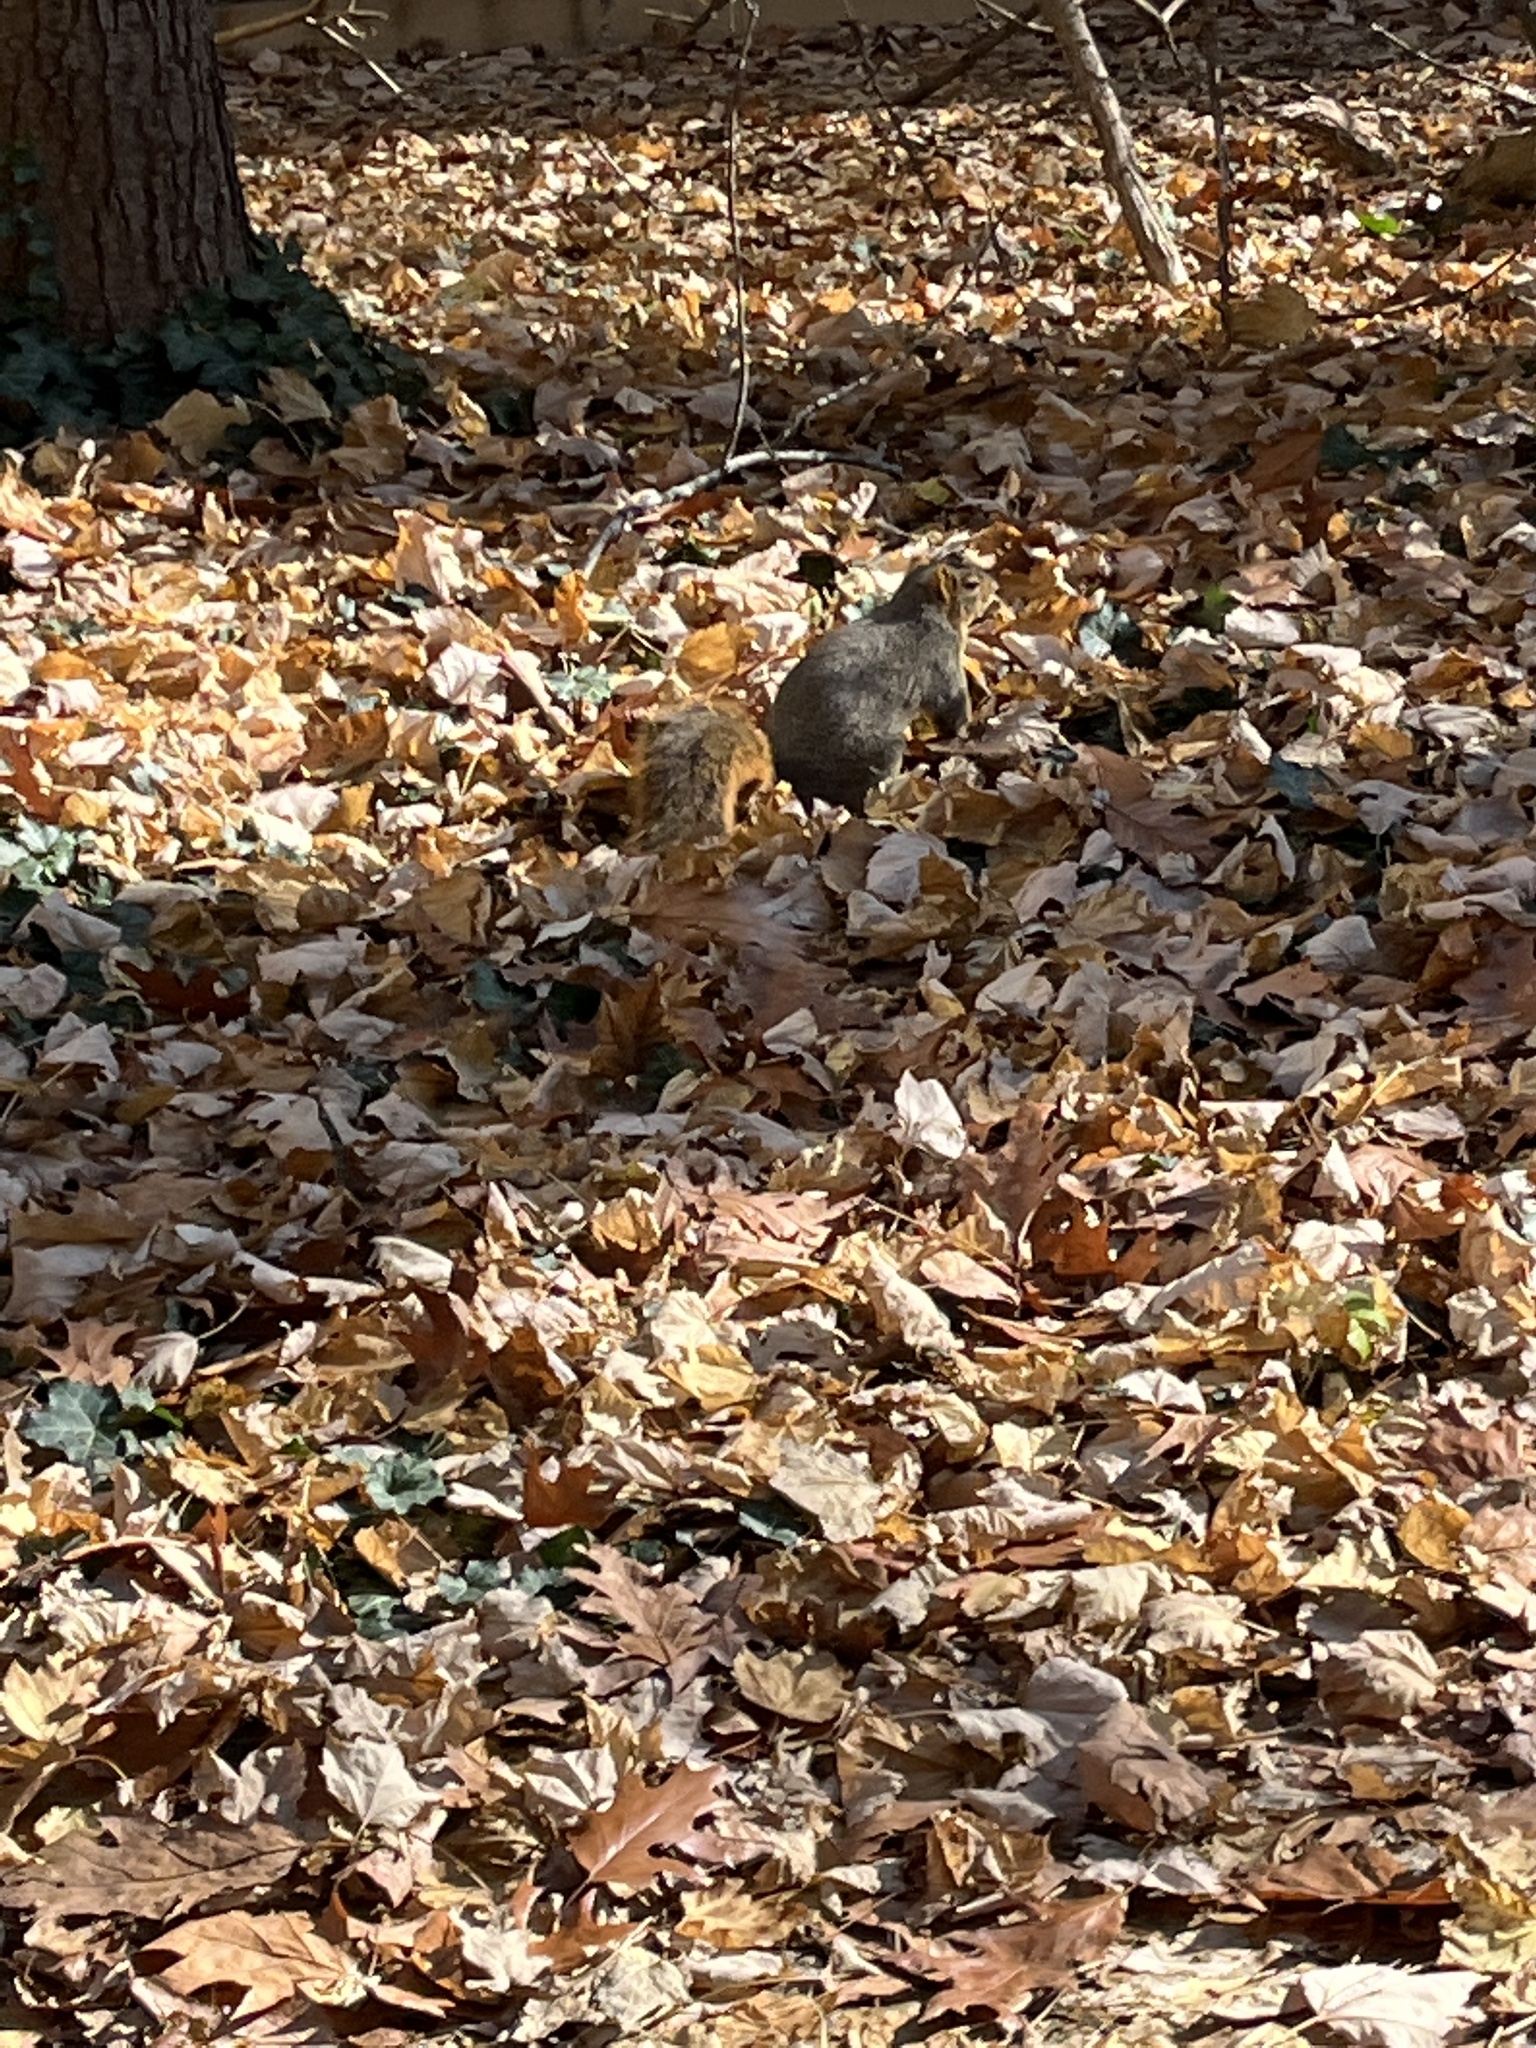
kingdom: Animalia
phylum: Chordata
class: Mammalia
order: Rodentia
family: Sciuridae
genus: Sciurus
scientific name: Sciurus niger
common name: Fox squirrel
